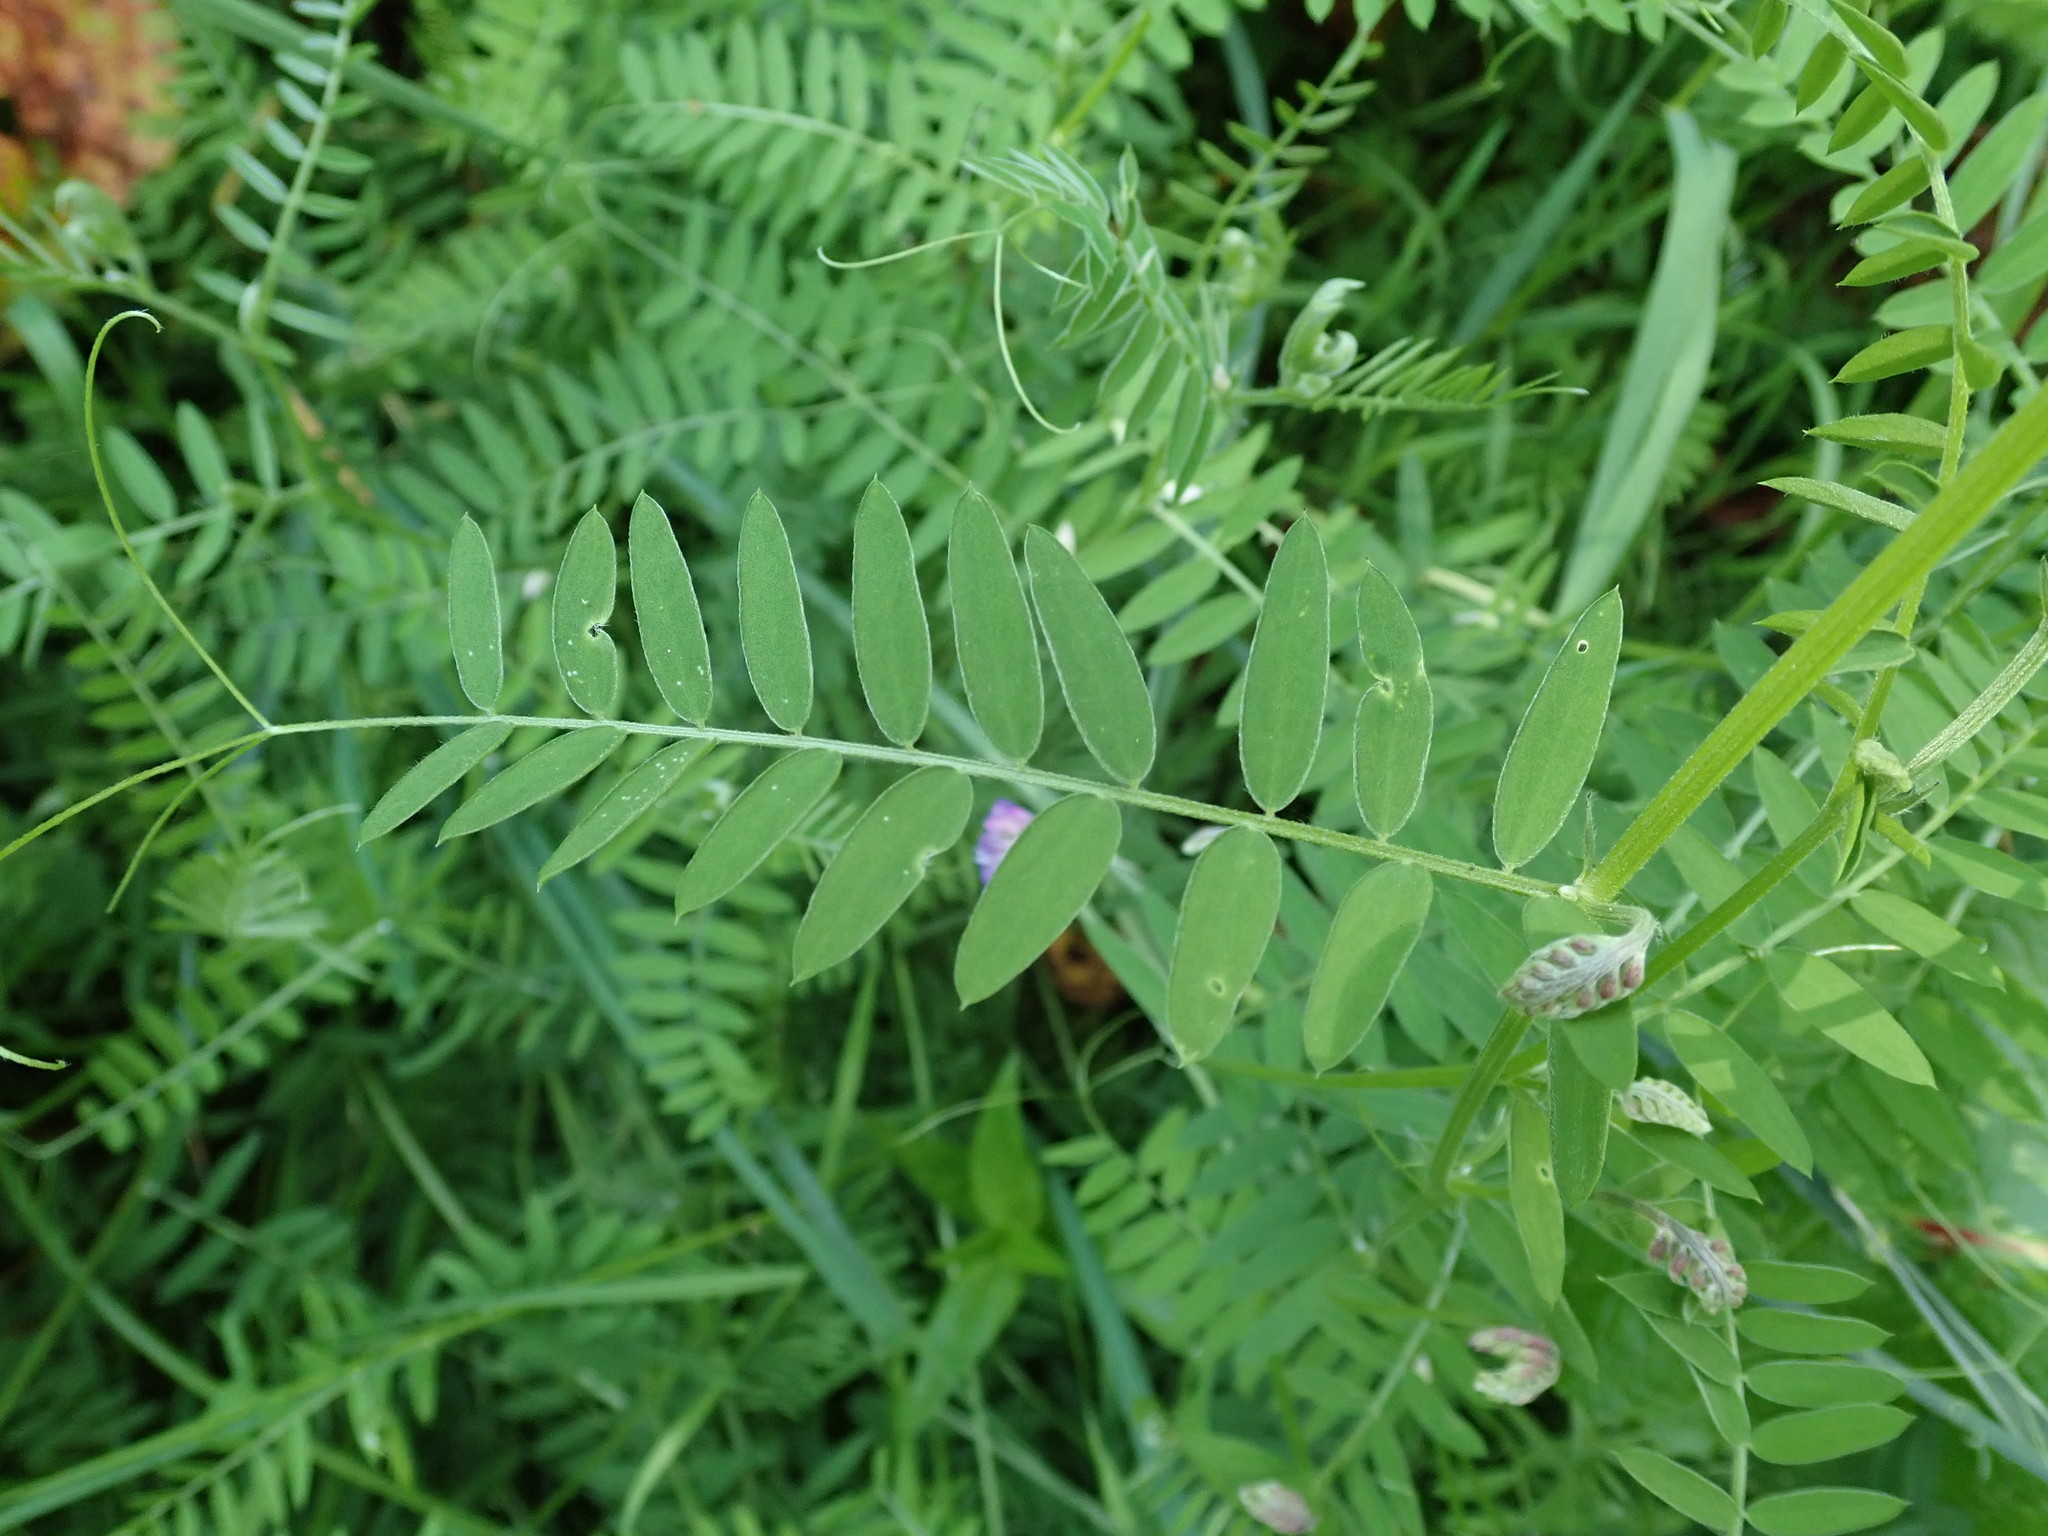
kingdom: Plantae
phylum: Tracheophyta
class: Magnoliopsida
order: Fabales
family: Fabaceae
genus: Vicia
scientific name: Vicia cracca
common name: Bird vetch
